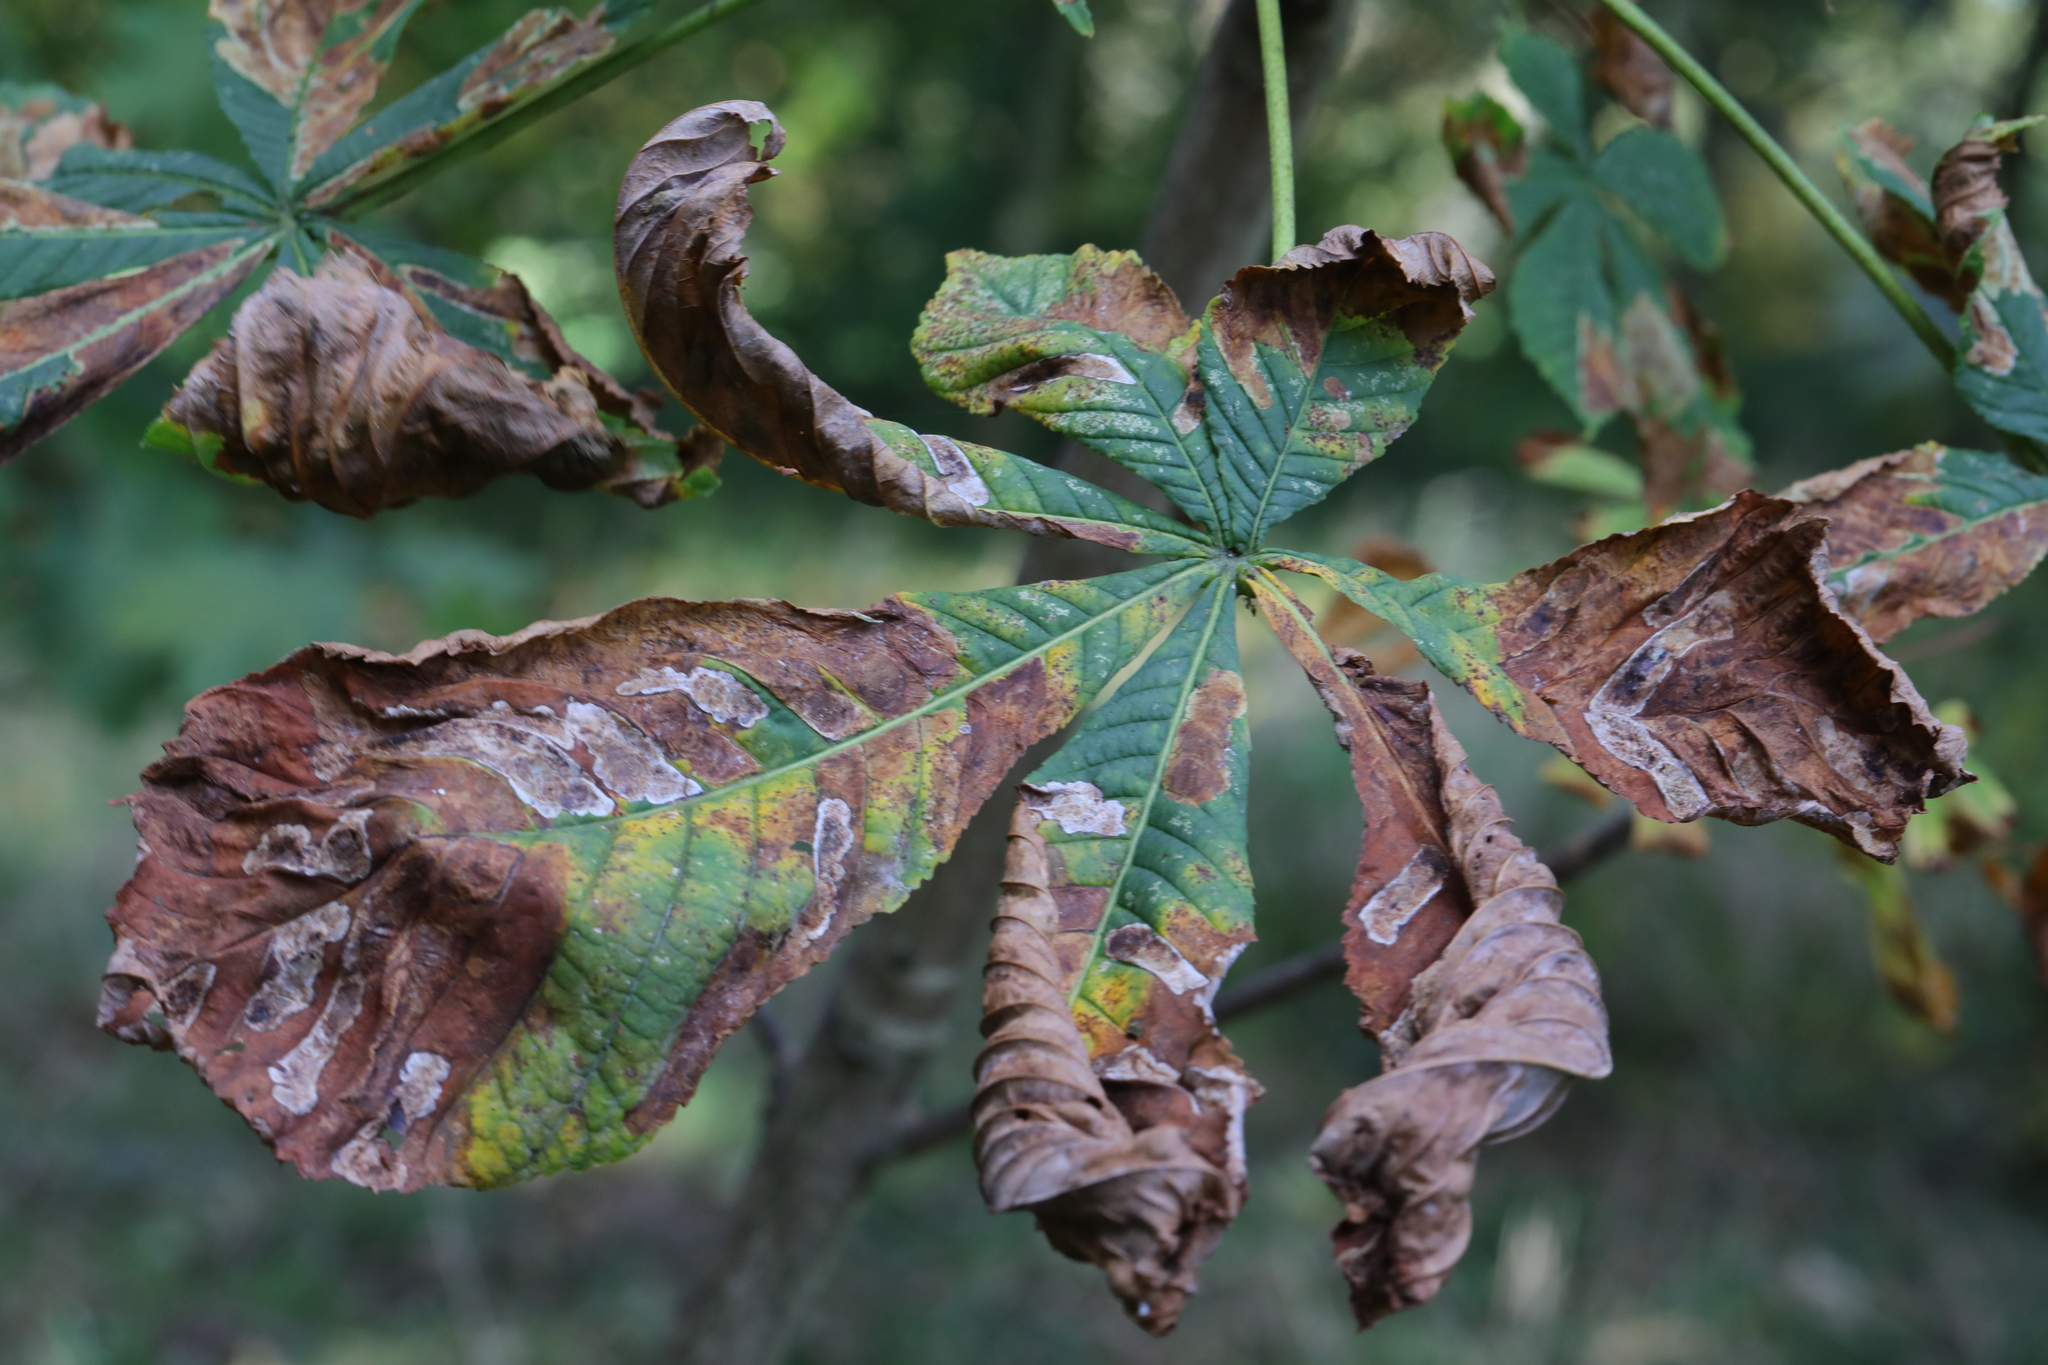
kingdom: Plantae
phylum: Tracheophyta
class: Magnoliopsida
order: Sapindales
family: Sapindaceae
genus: Aesculus
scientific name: Aesculus hippocastanum
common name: Horse-chestnut
